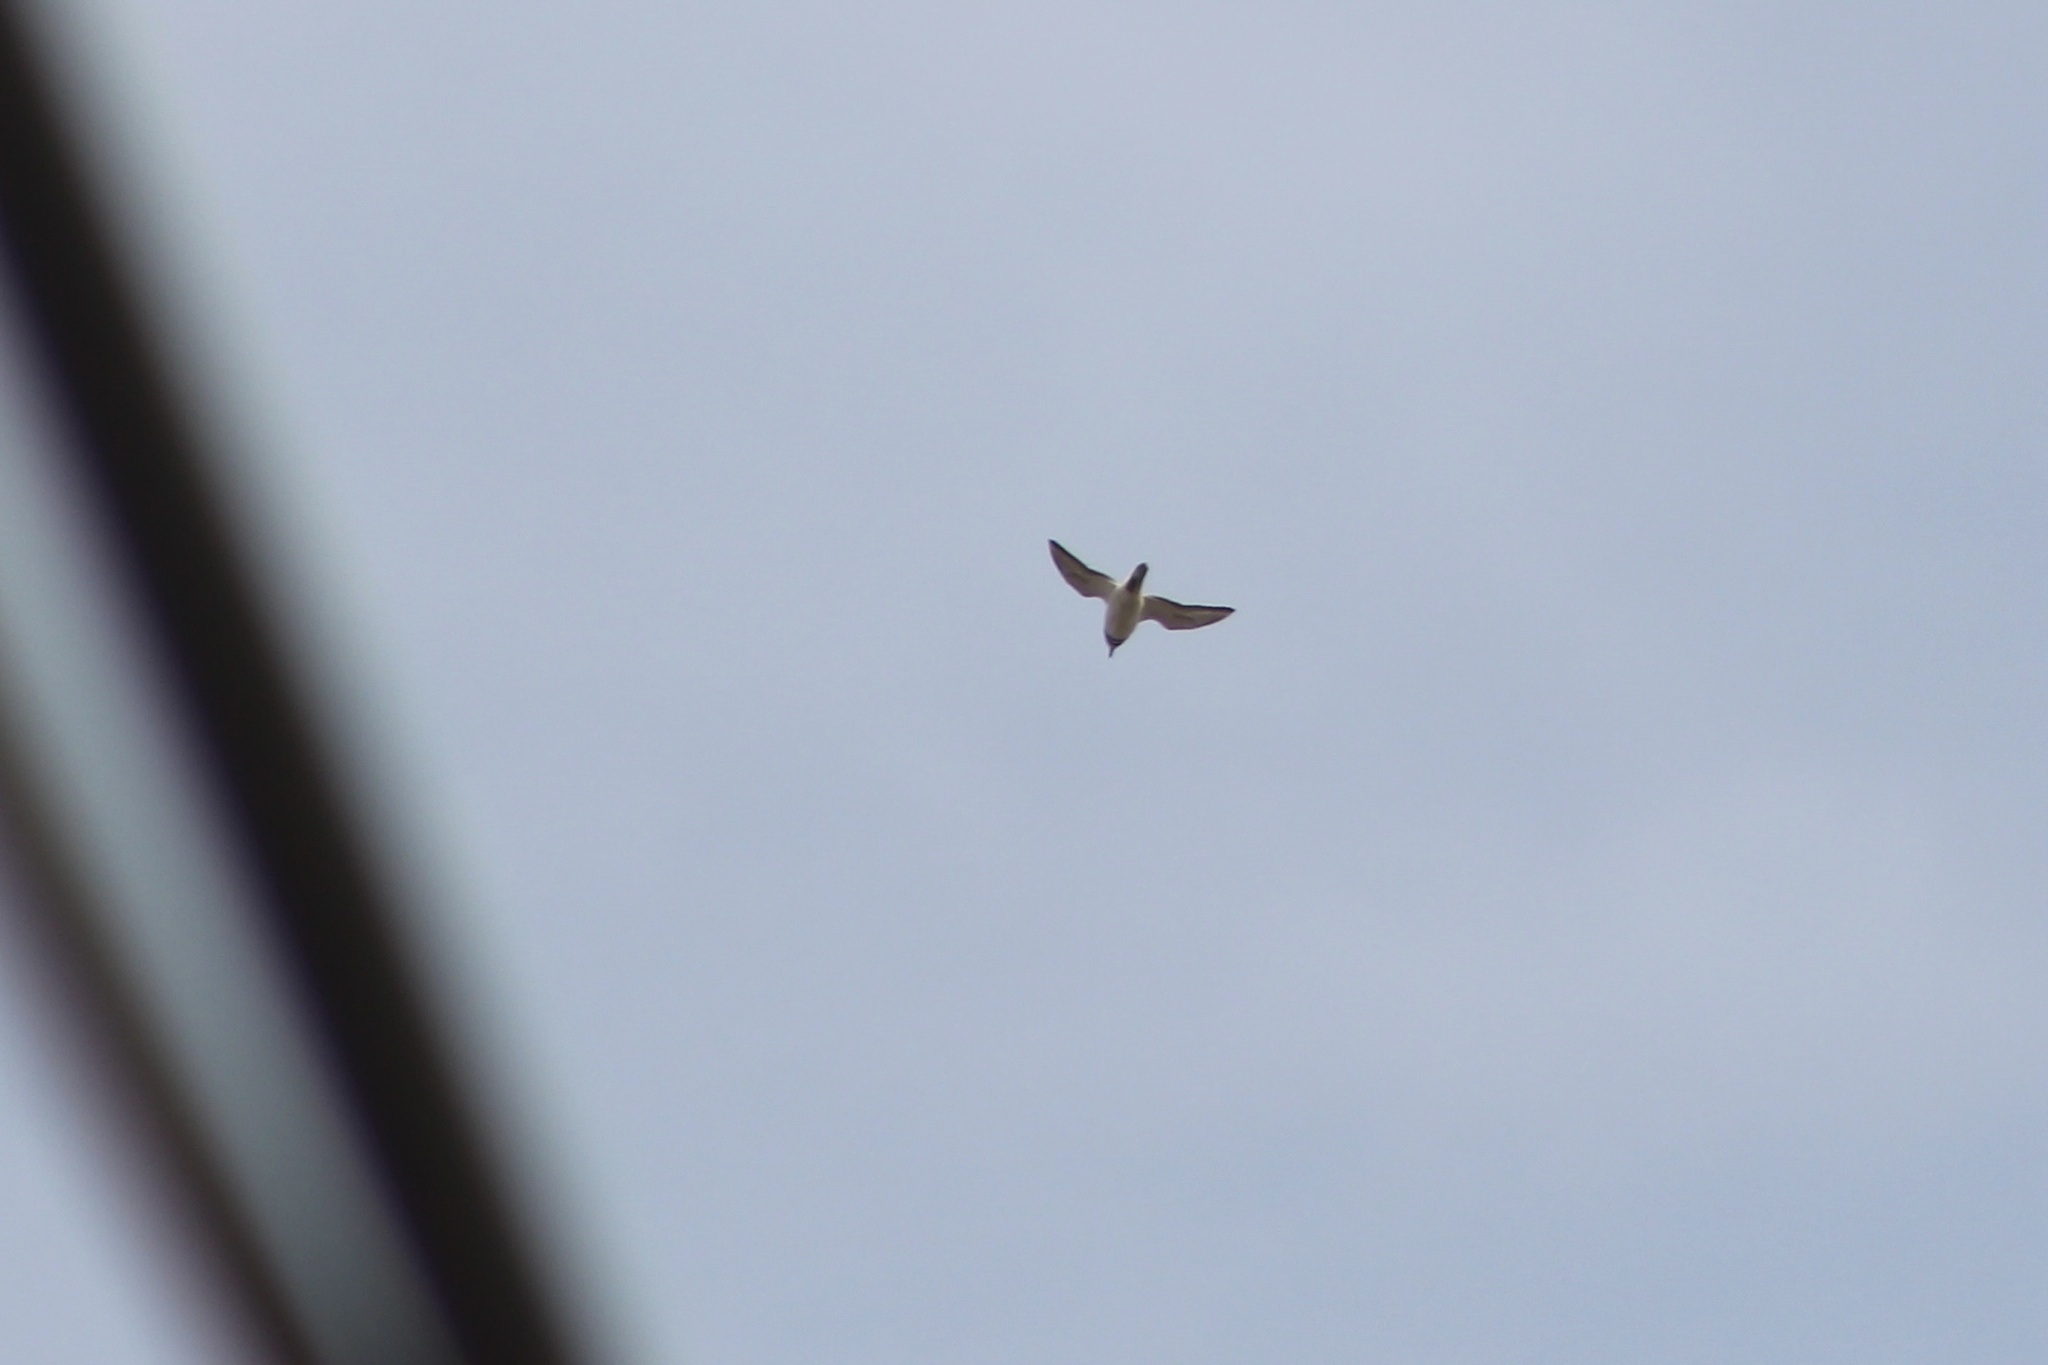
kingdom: Animalia
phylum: Chordata
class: Aves
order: Charadriiformes
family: Charadriidae
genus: Charadrius
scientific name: Charadrius vociferus
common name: Killdeer
